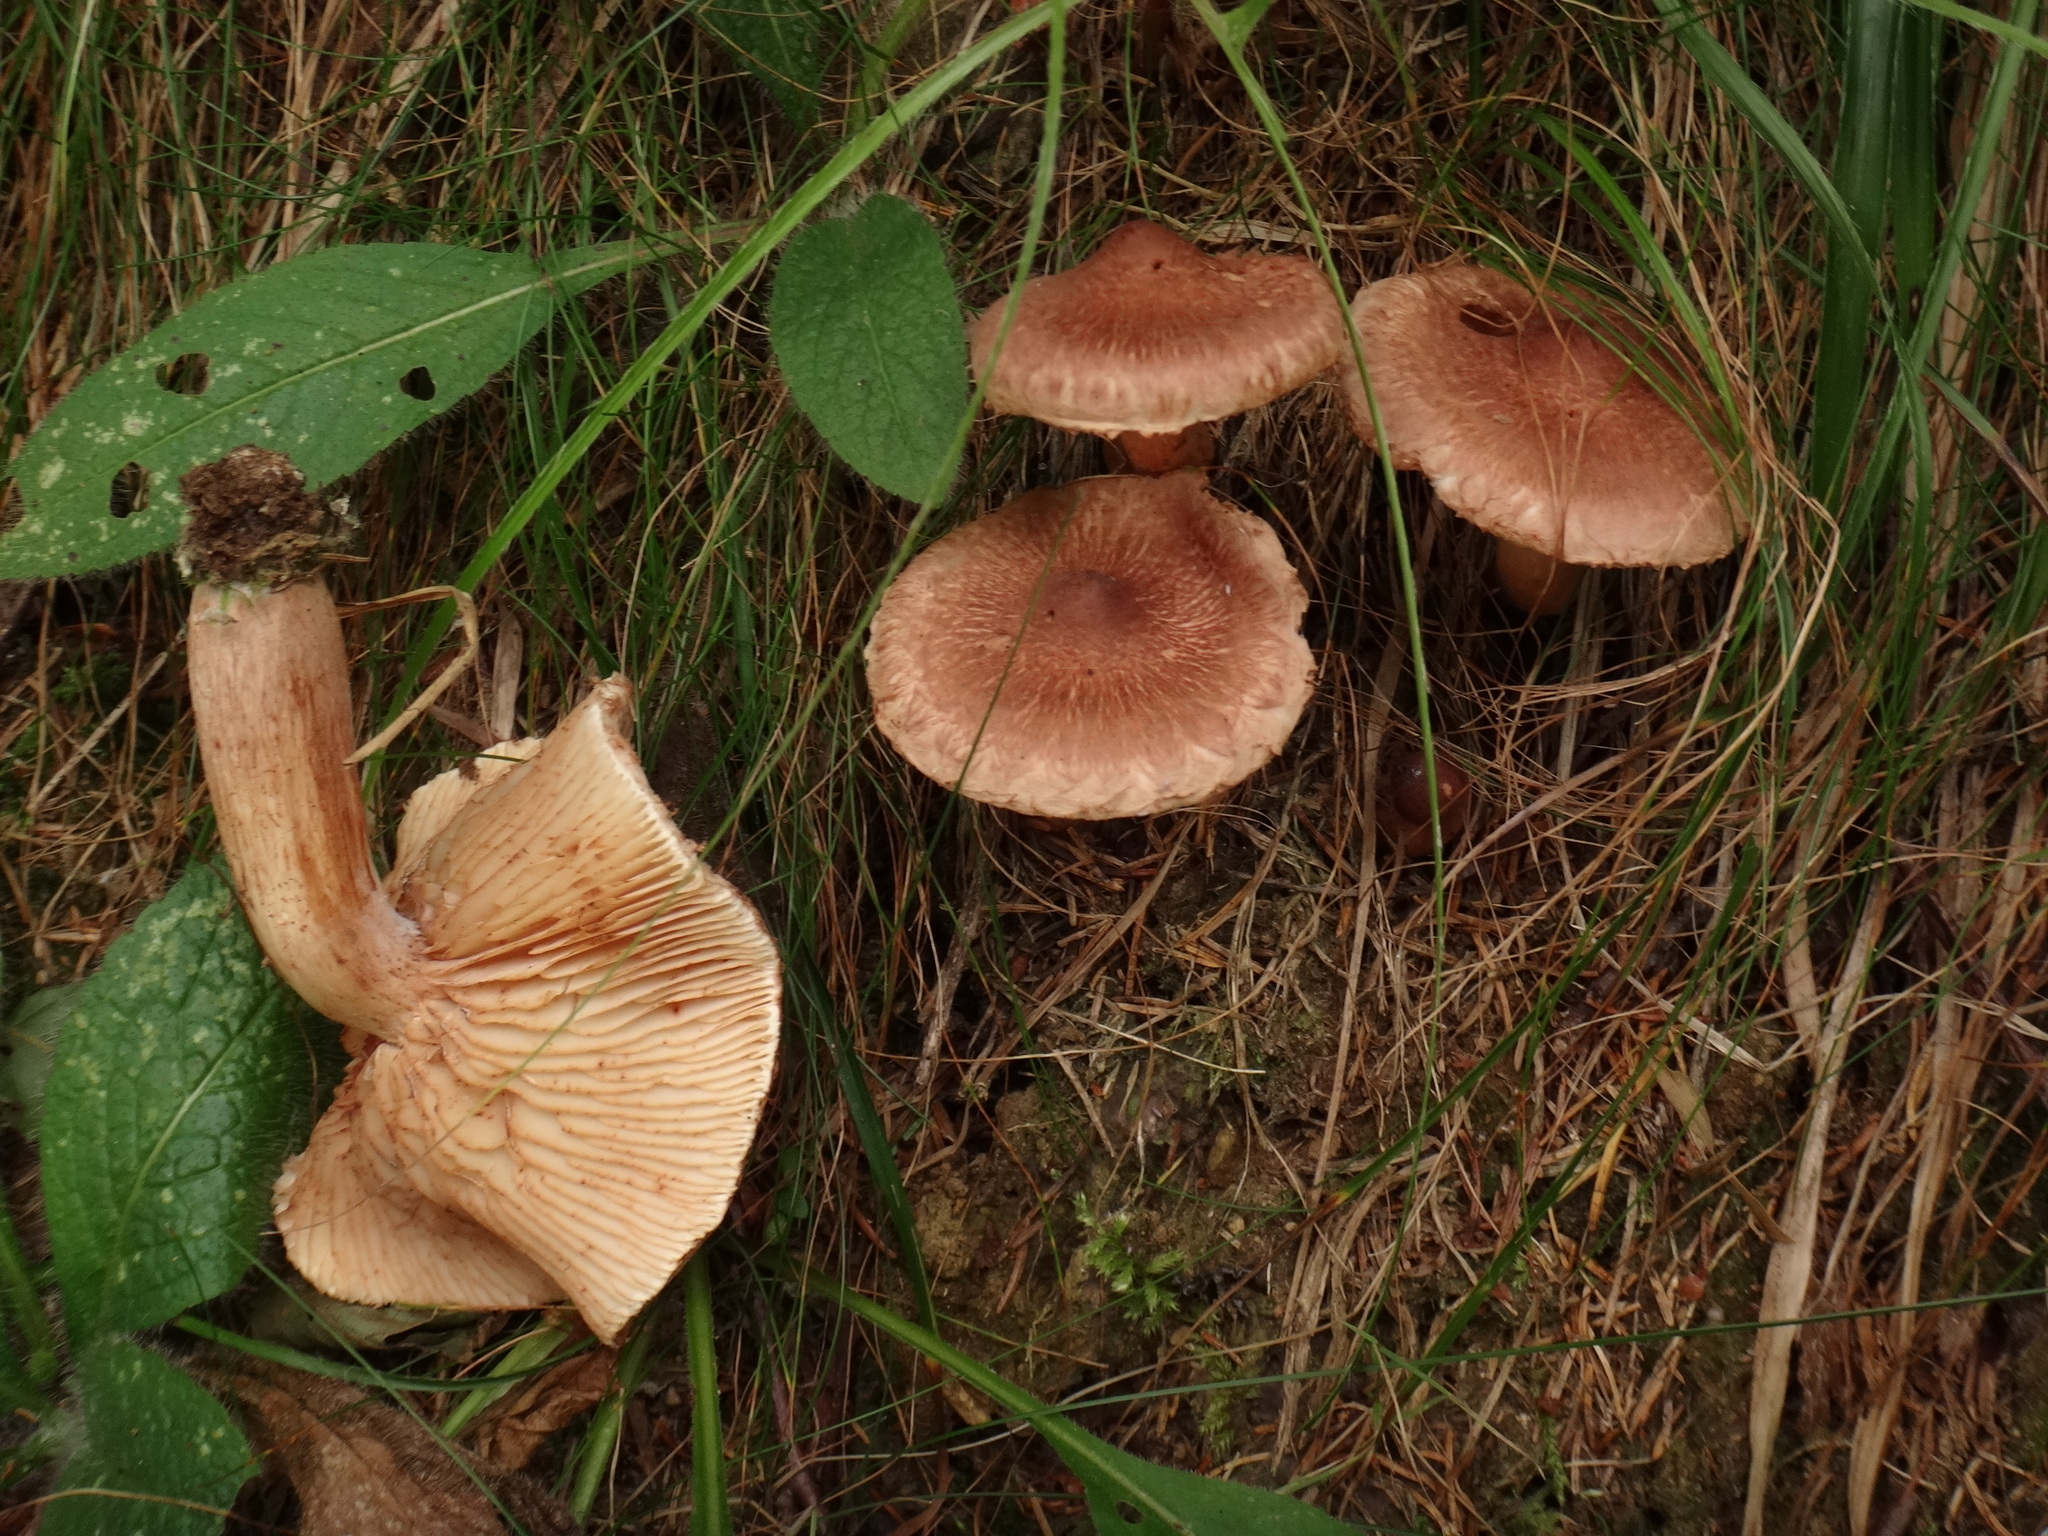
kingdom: Fungi
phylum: Basidiomycota
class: Agaricomycetes
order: Agaricales
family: Tricholomataceae
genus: Tricholoma
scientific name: Tricholoma vaccinum
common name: Scaly knight
